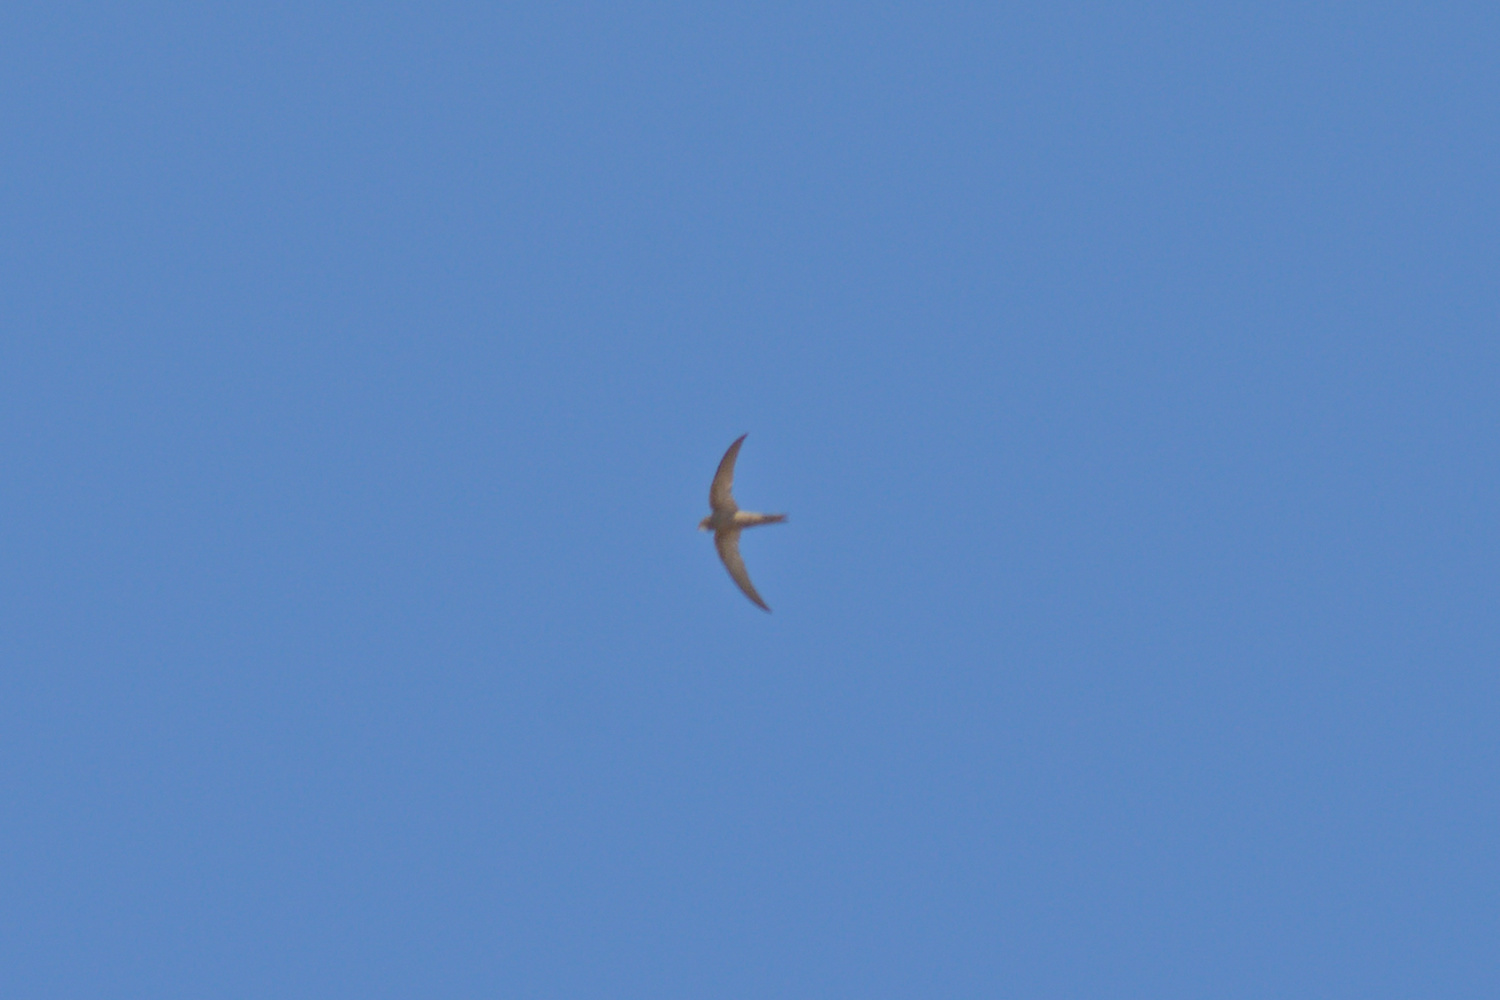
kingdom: Animalia
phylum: Chordata
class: Aves
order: Apodiformes
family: Apodidae
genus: Apus
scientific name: Apus pallidus
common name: Pallid swift
